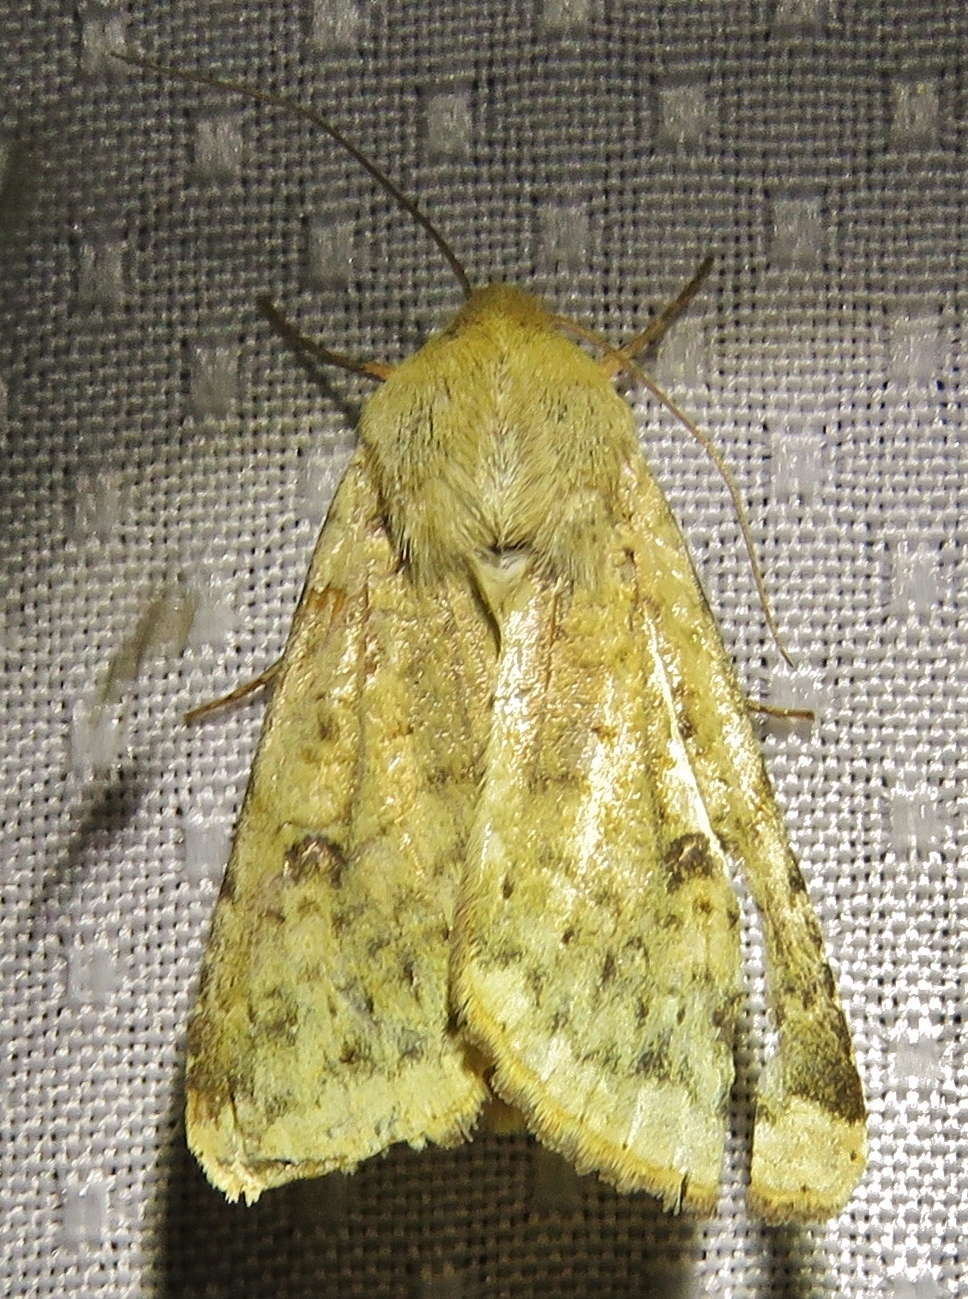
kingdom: Animalia
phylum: Arthropoda
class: Insecta
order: Lepidoptera
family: Noctuidae
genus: Helicoverpa
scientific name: Helicoverpa zea
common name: Bollworm
